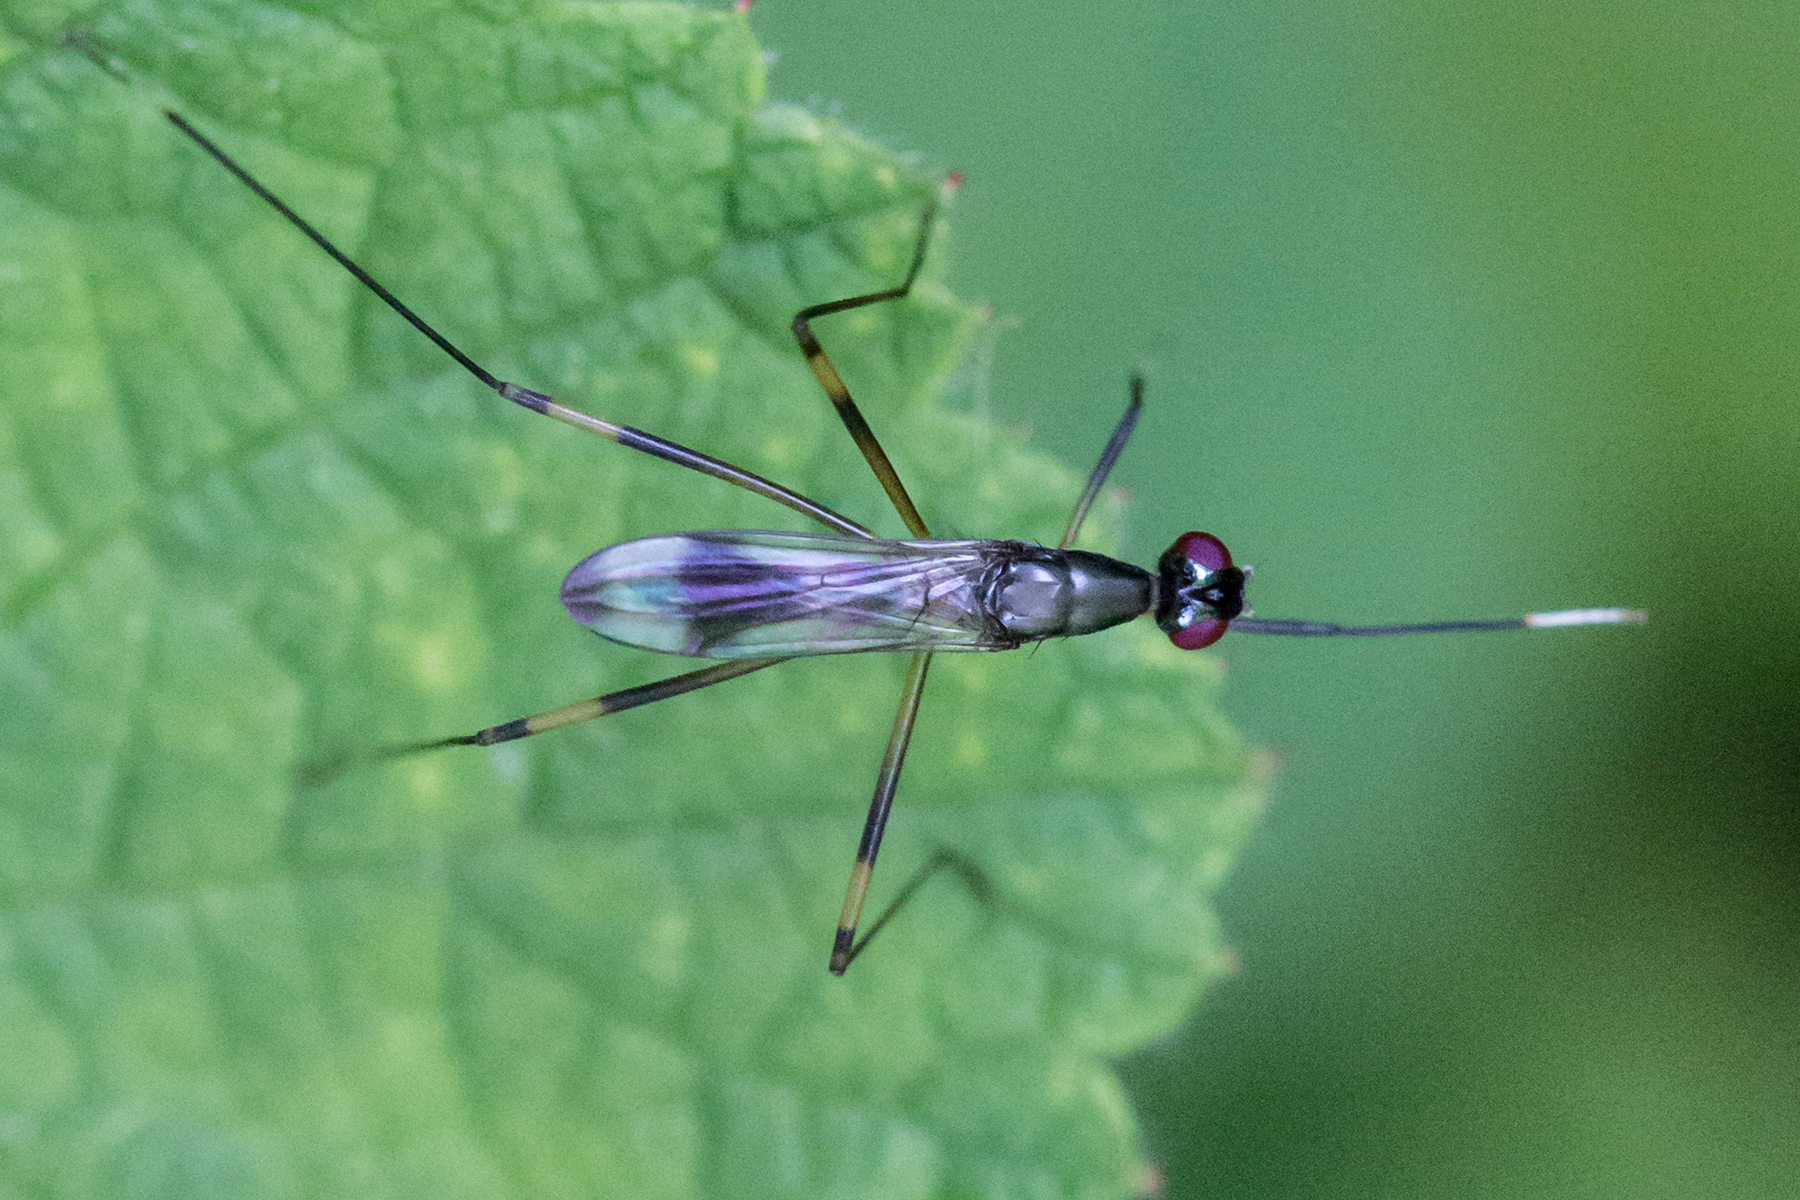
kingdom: Animalia
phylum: Arthropoda
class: Insecta
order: Diptera
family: Micropezidae
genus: Rainieria
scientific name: Rainieria antennaepes
